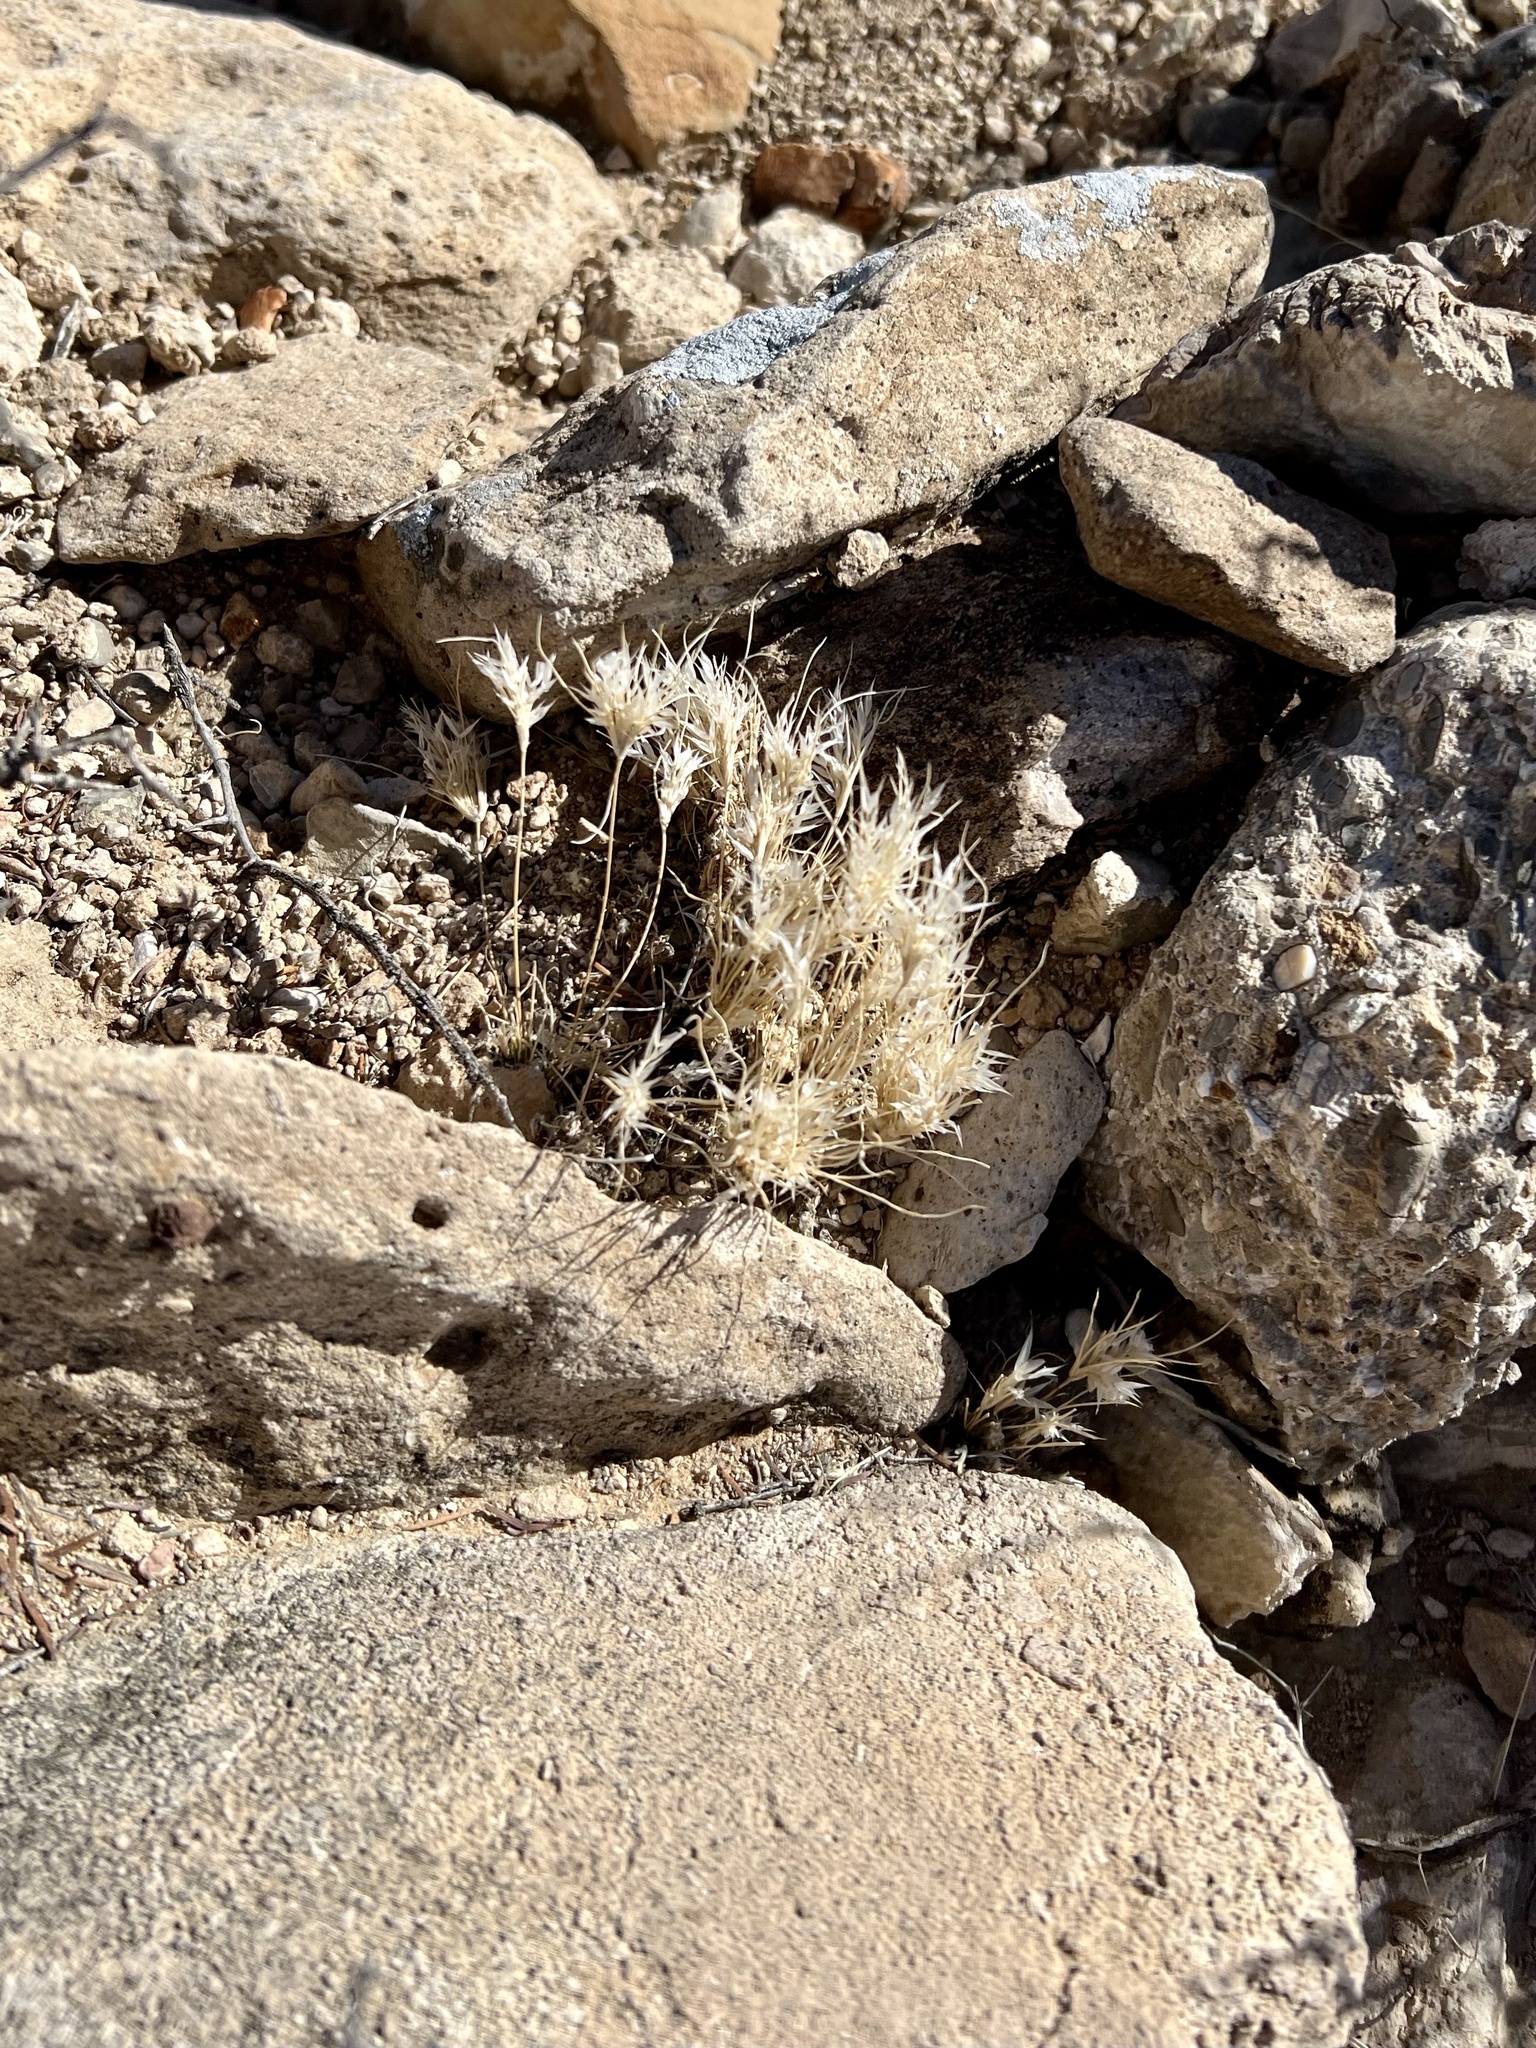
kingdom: Plantae
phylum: Tracheophyta
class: Liliopsida
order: Poales
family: Poaceae
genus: Dasyochloa
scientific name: Dasyochloa pulchella
